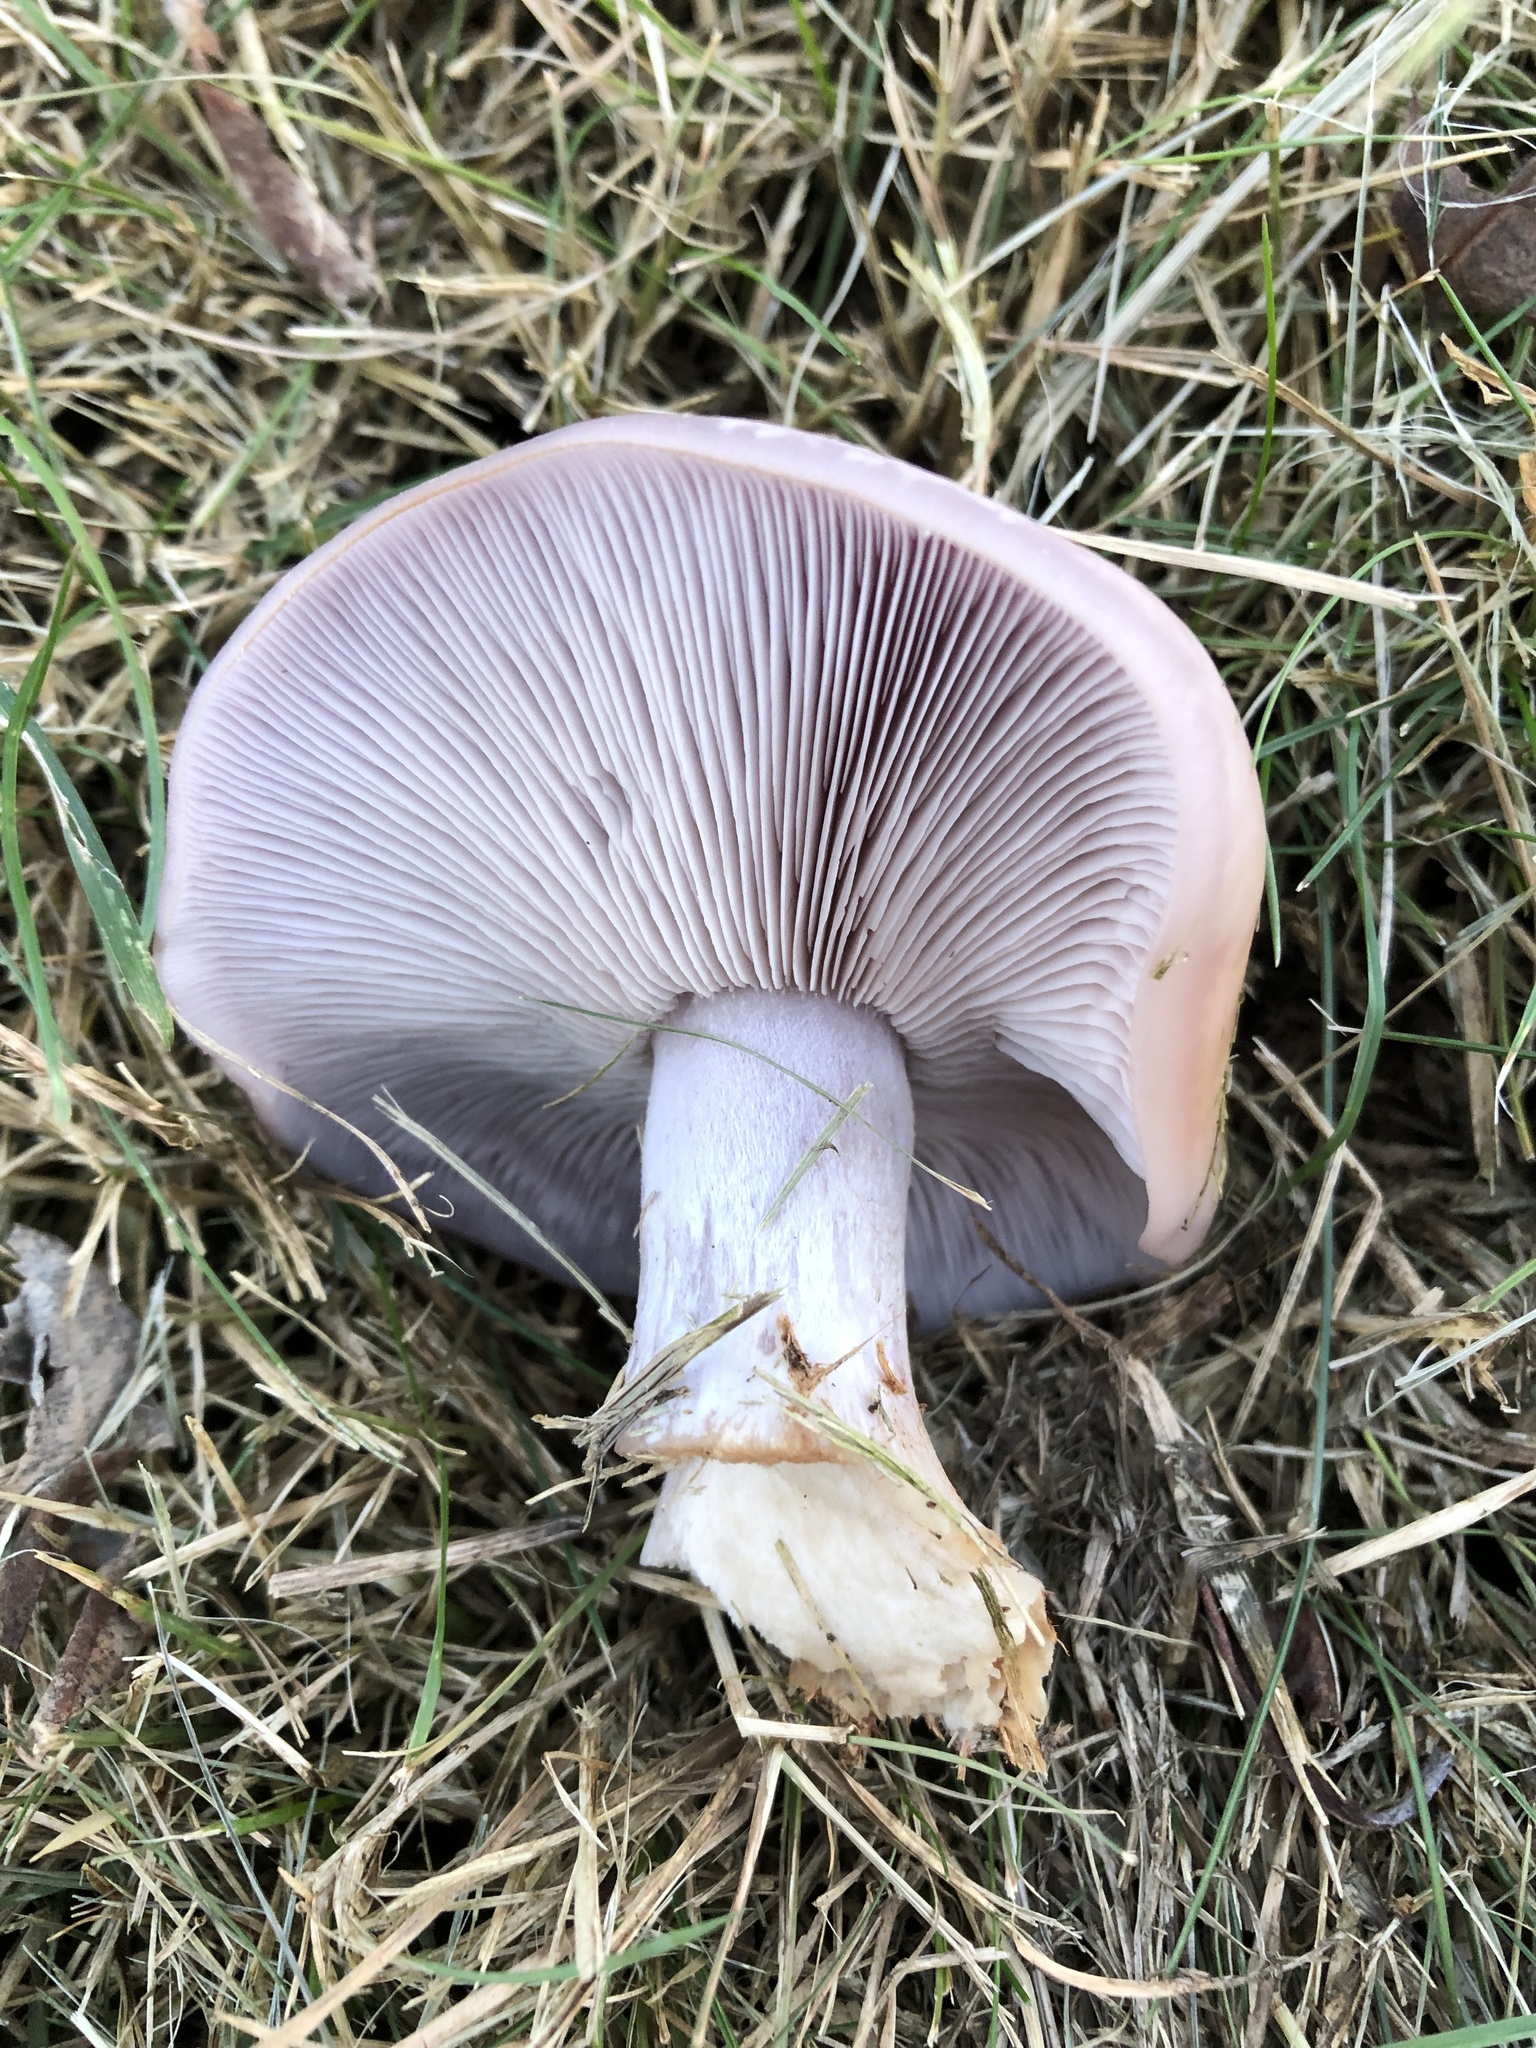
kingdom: Fungi
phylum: Basidiomycota
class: Agaricomycetes
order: Agaricales
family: Tricholomataceae
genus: Collybia
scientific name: Collybia
